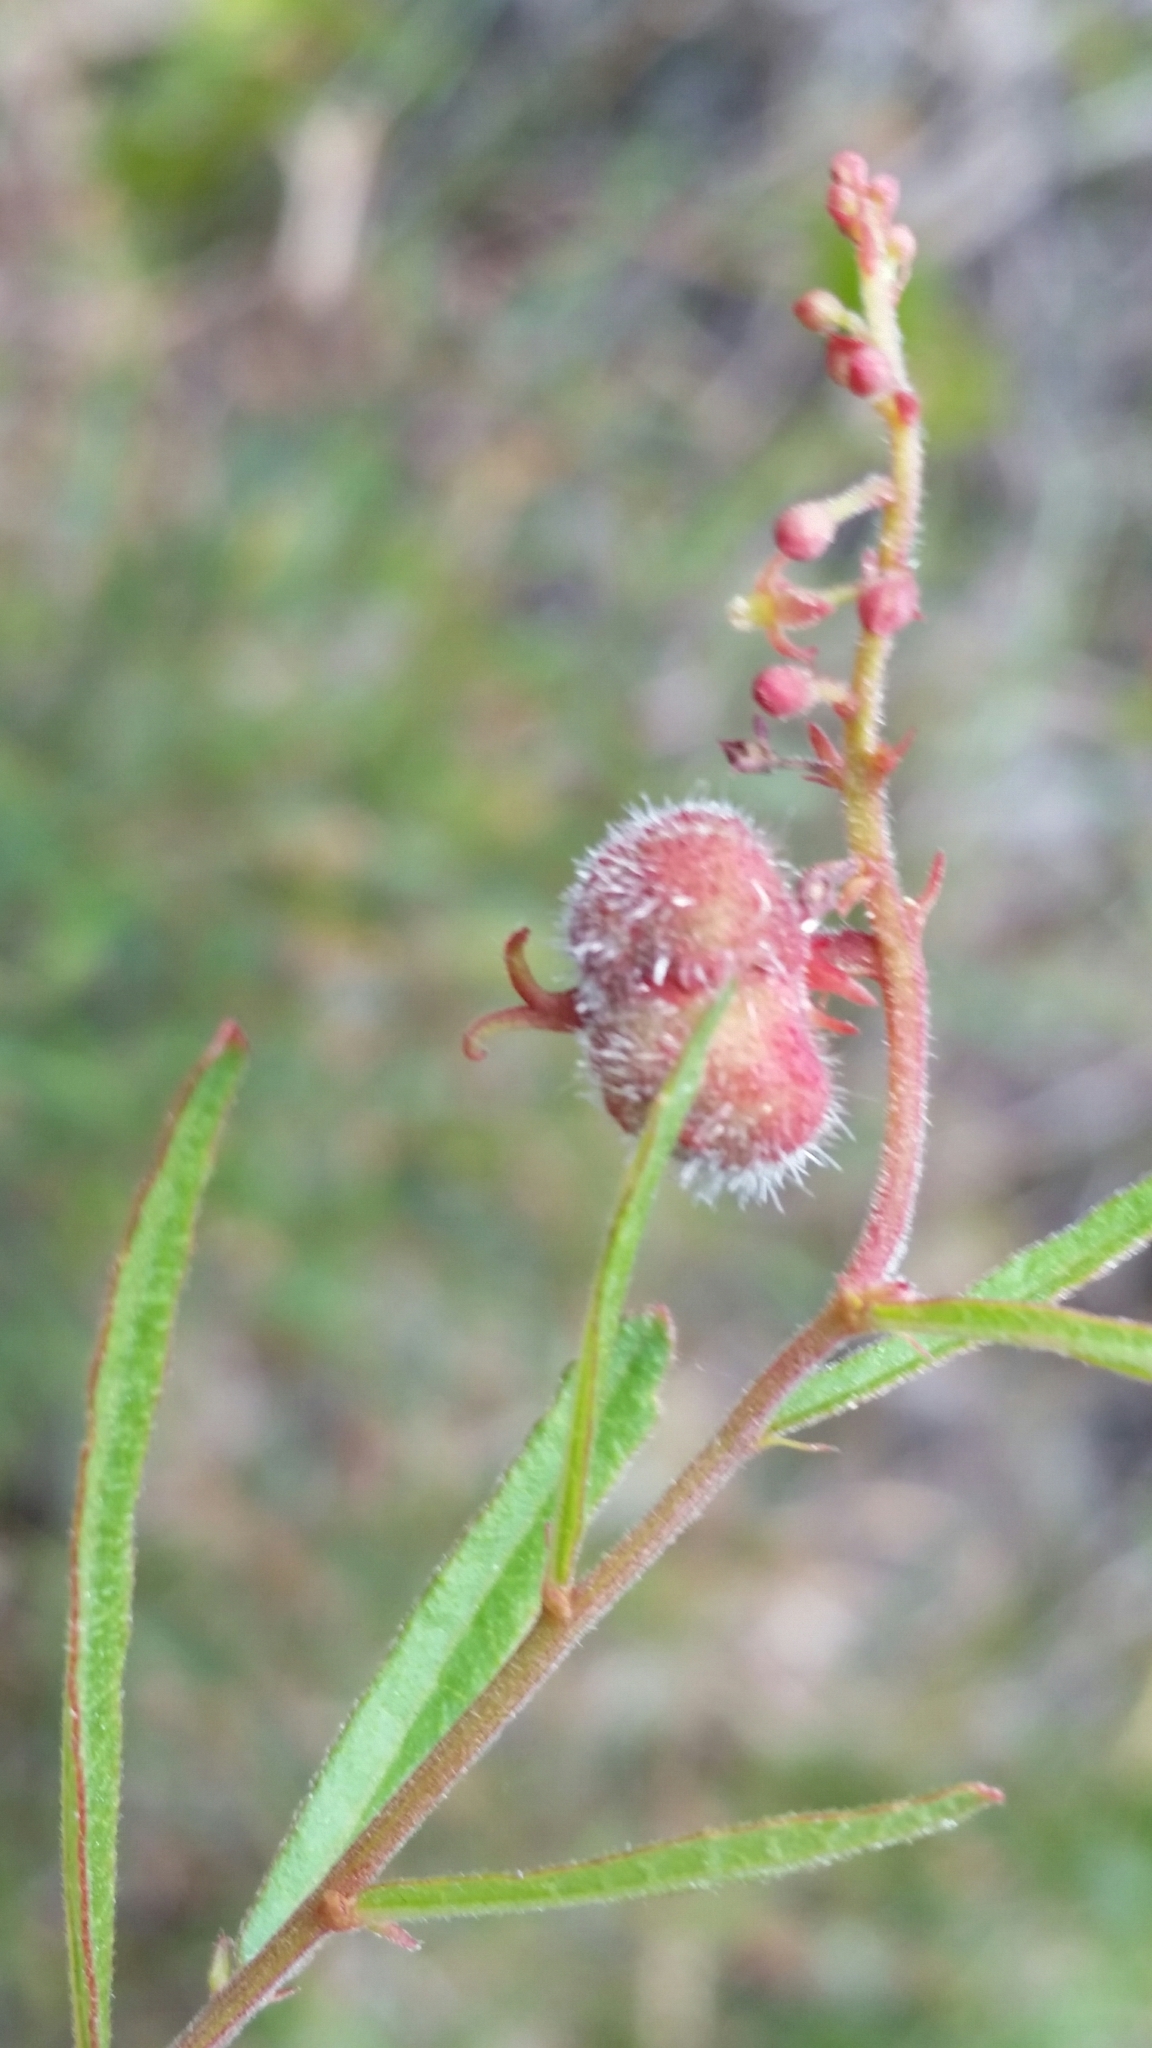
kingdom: Plantae
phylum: Tracheophyta
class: Magnoliopsida
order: Malpighiales
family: Euphorbiaceae
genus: Tragia
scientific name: Tragia urens
